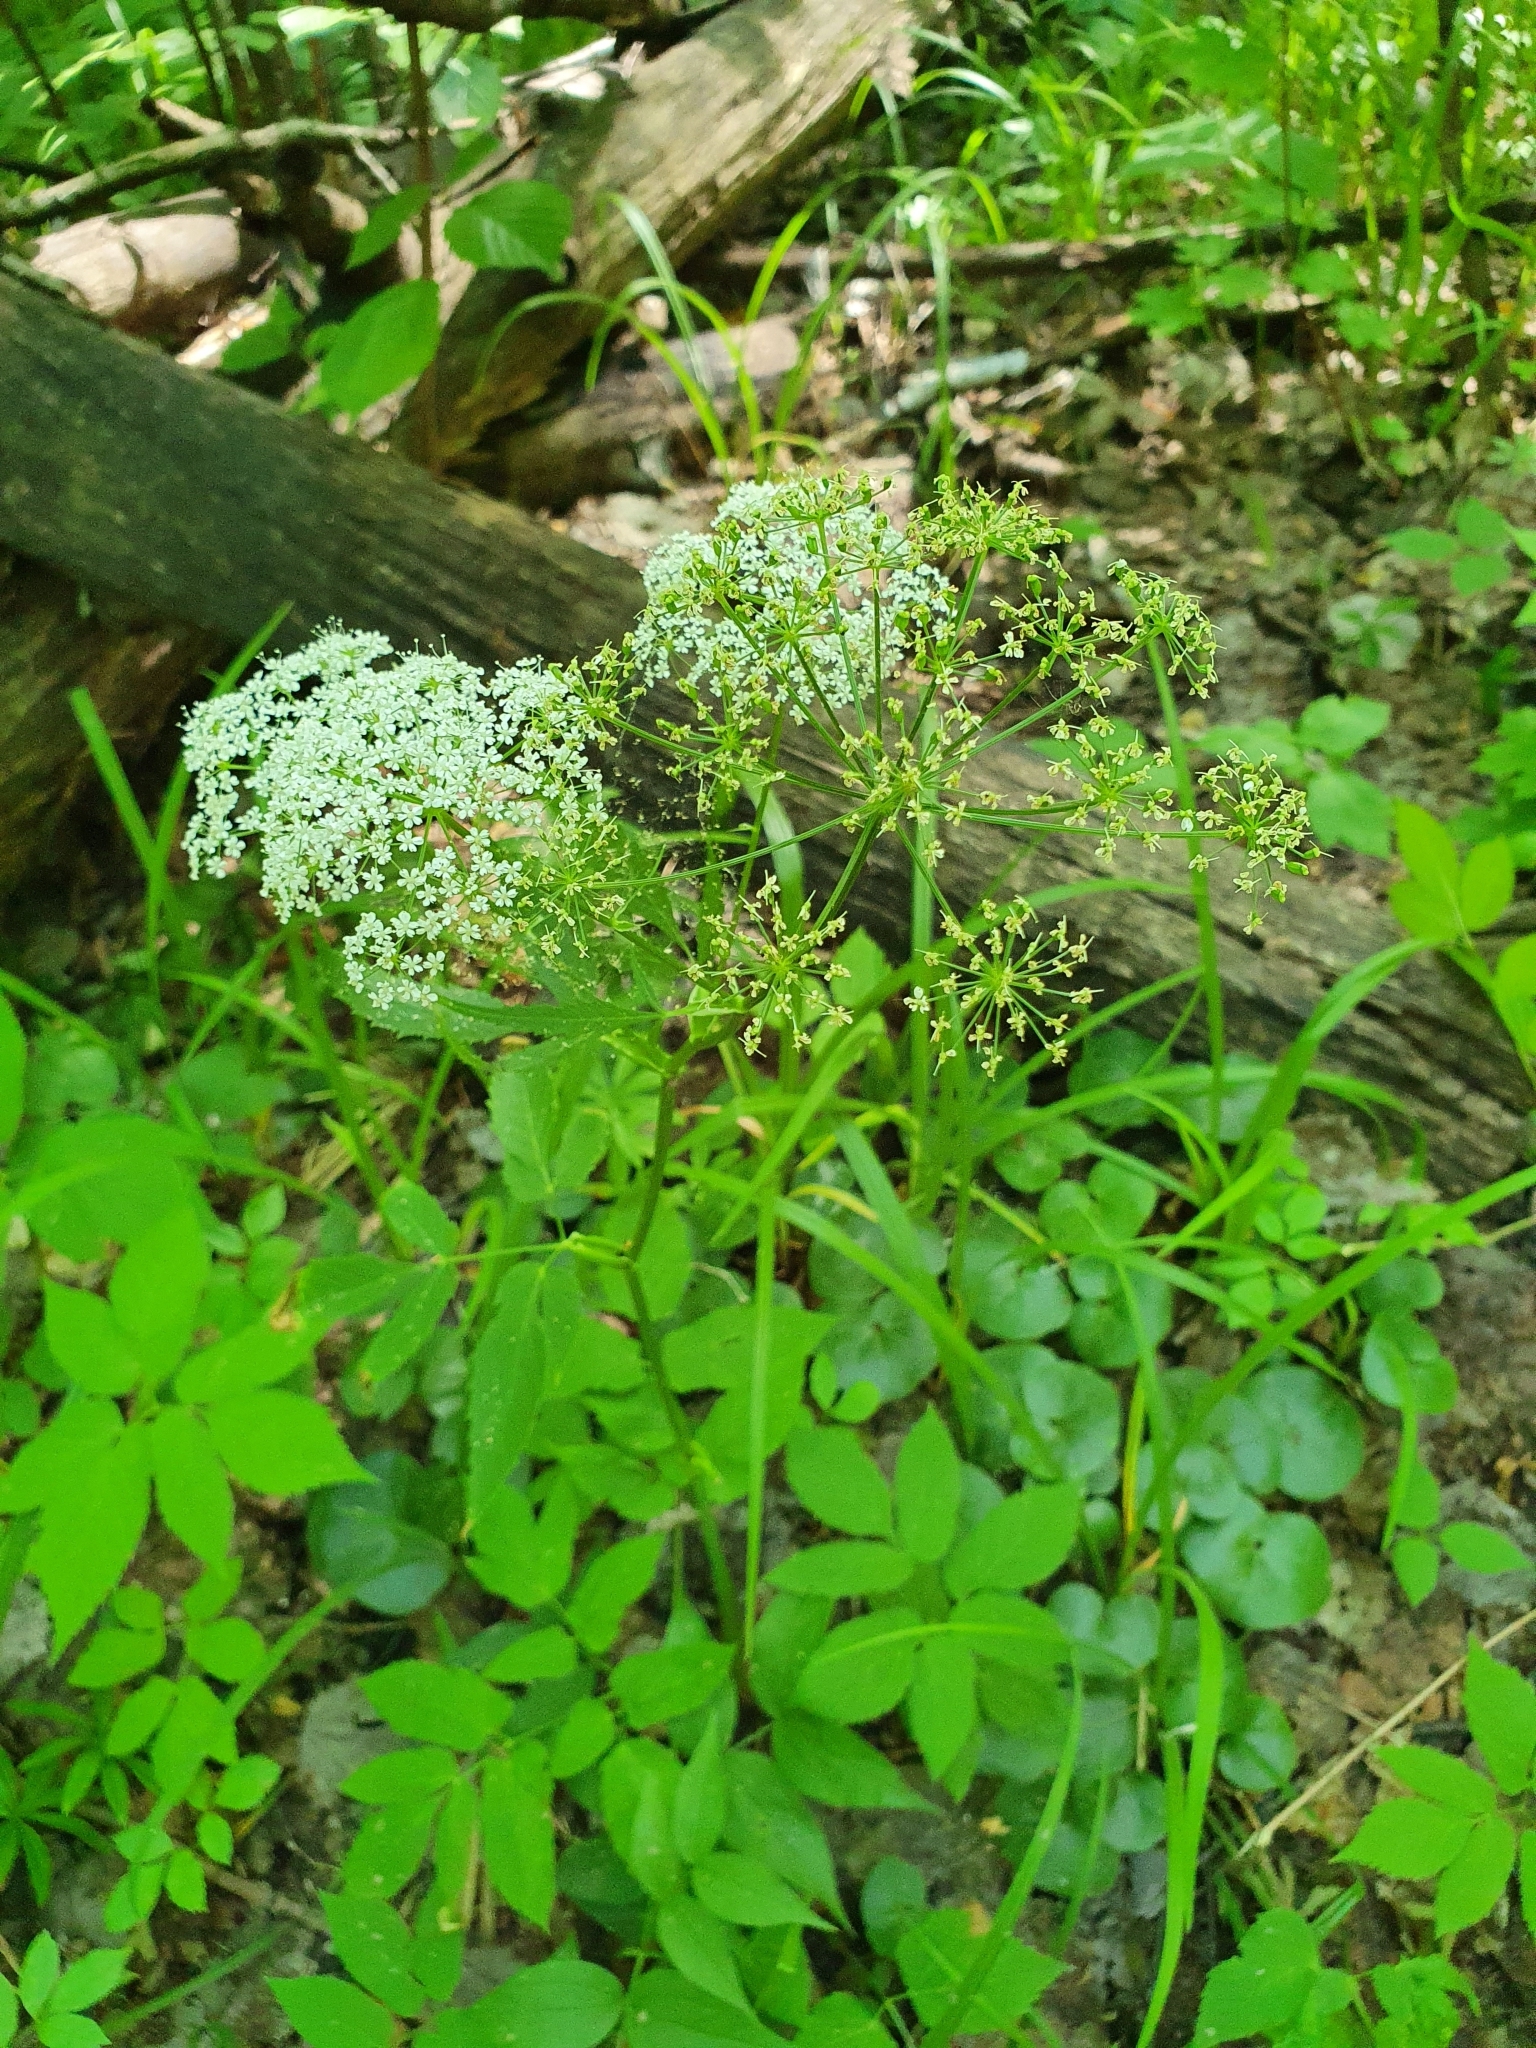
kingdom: Plantae
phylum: Tracheophyta
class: Magnoliopsida
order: Apiales
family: Apiaceae
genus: Aegopodium
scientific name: Aegopodium podagraria
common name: Ground-elder
